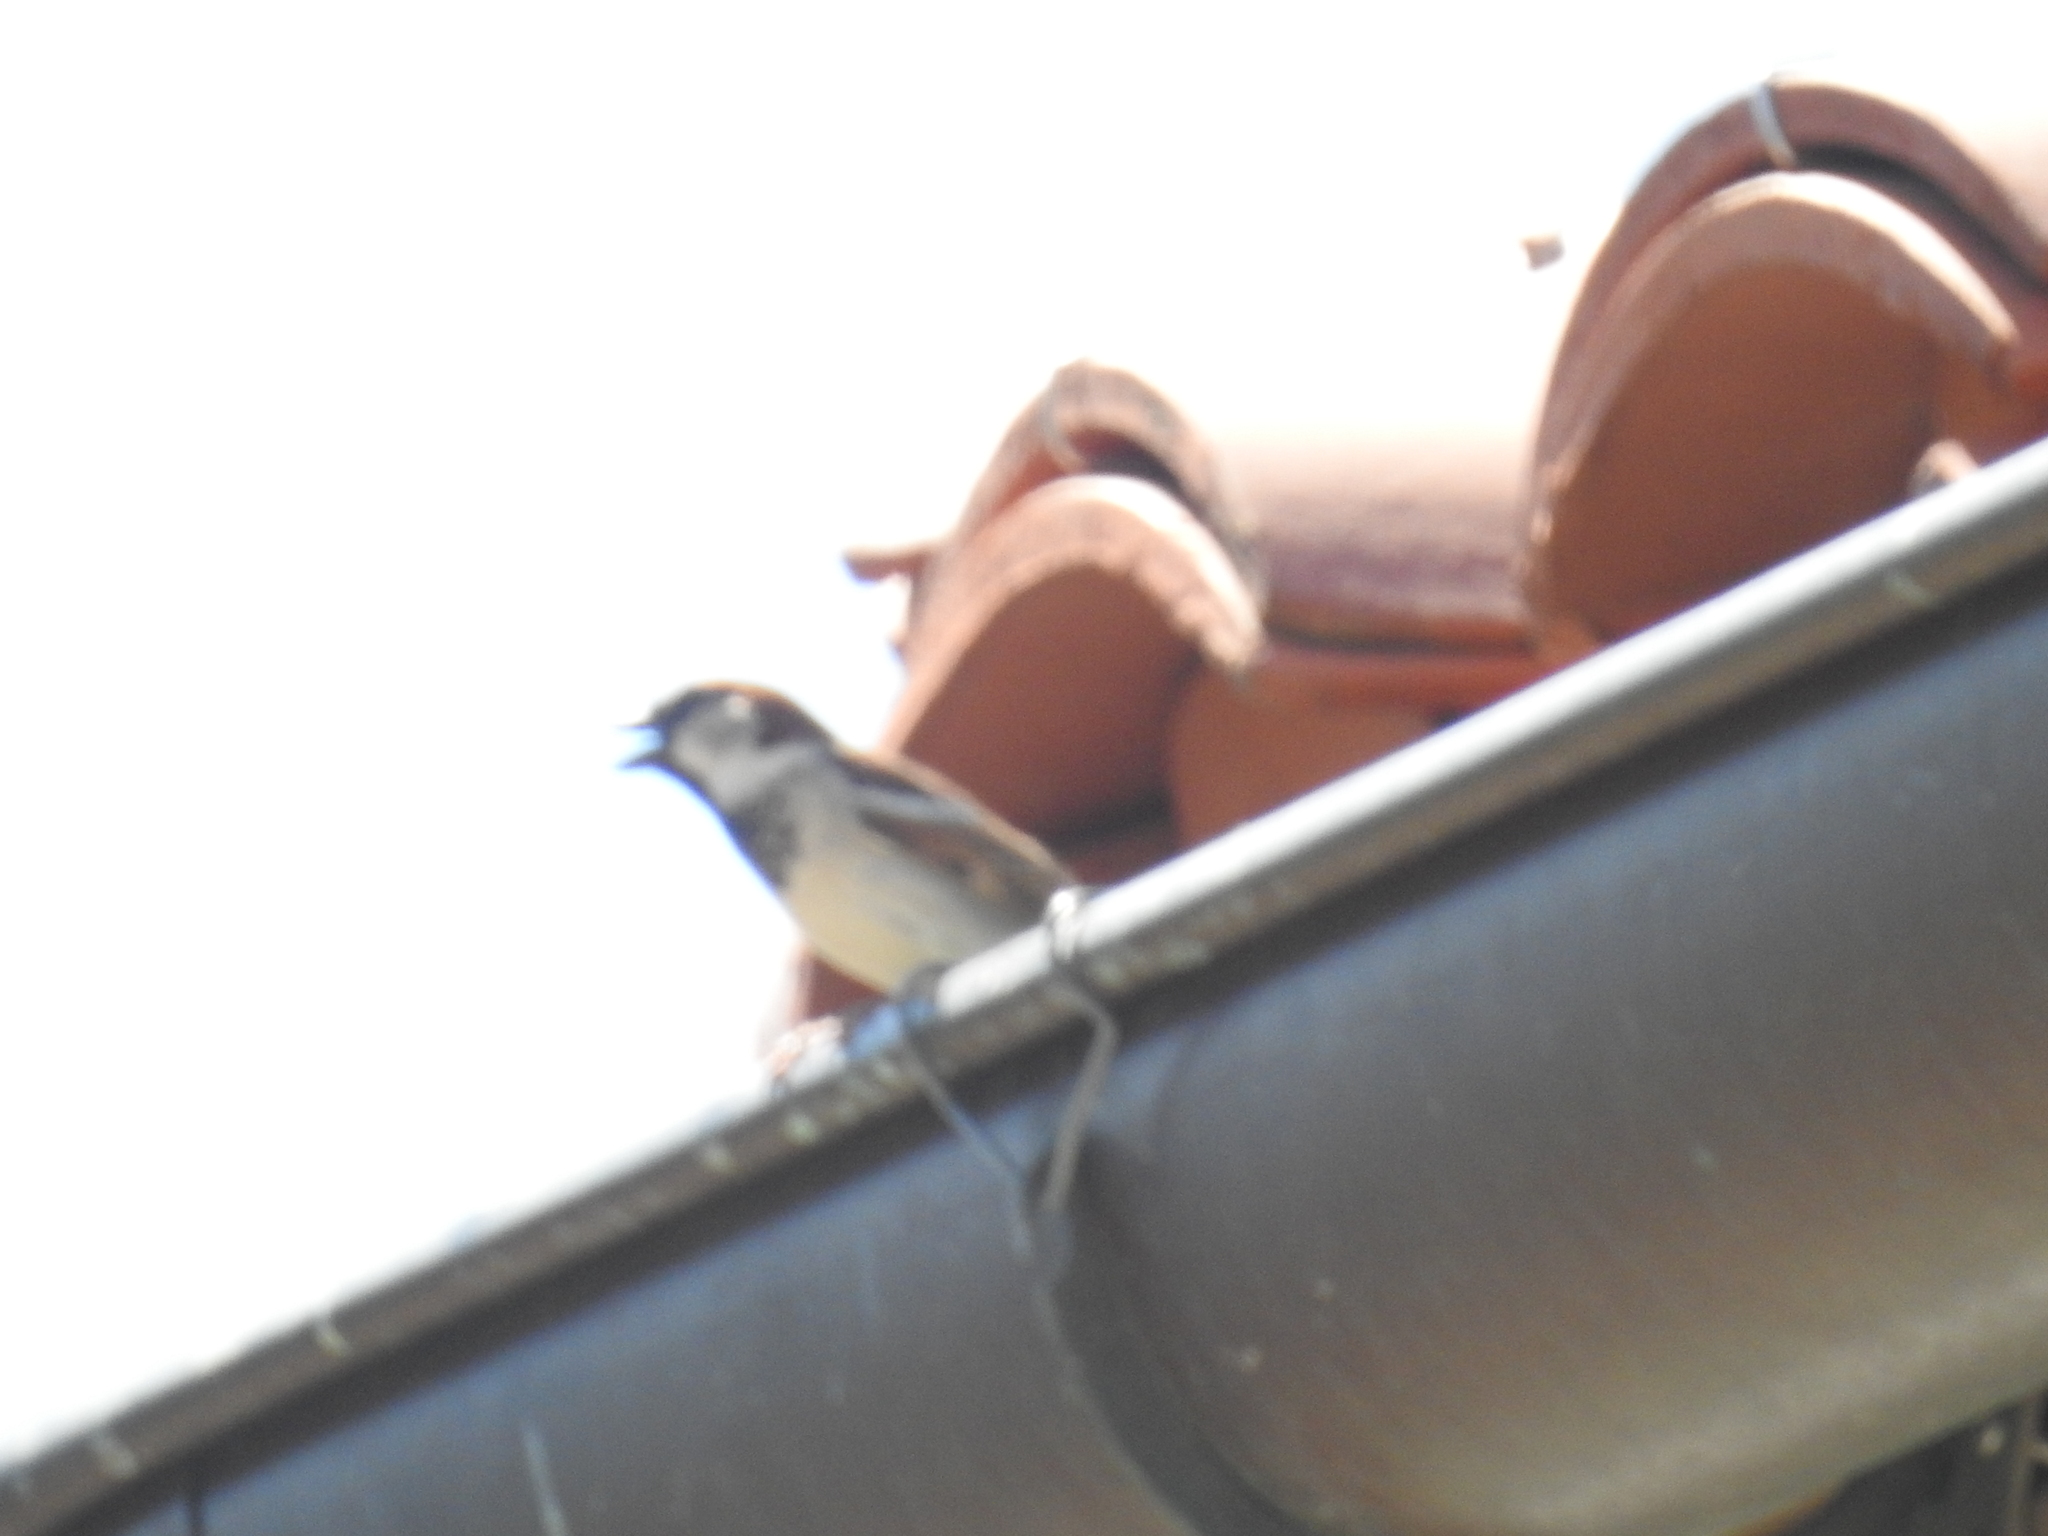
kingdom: Animalia
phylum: Chordata
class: Aves
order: Passeriformes
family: Passeridae
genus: Passer
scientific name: Passer domesticus
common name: House sparrow
